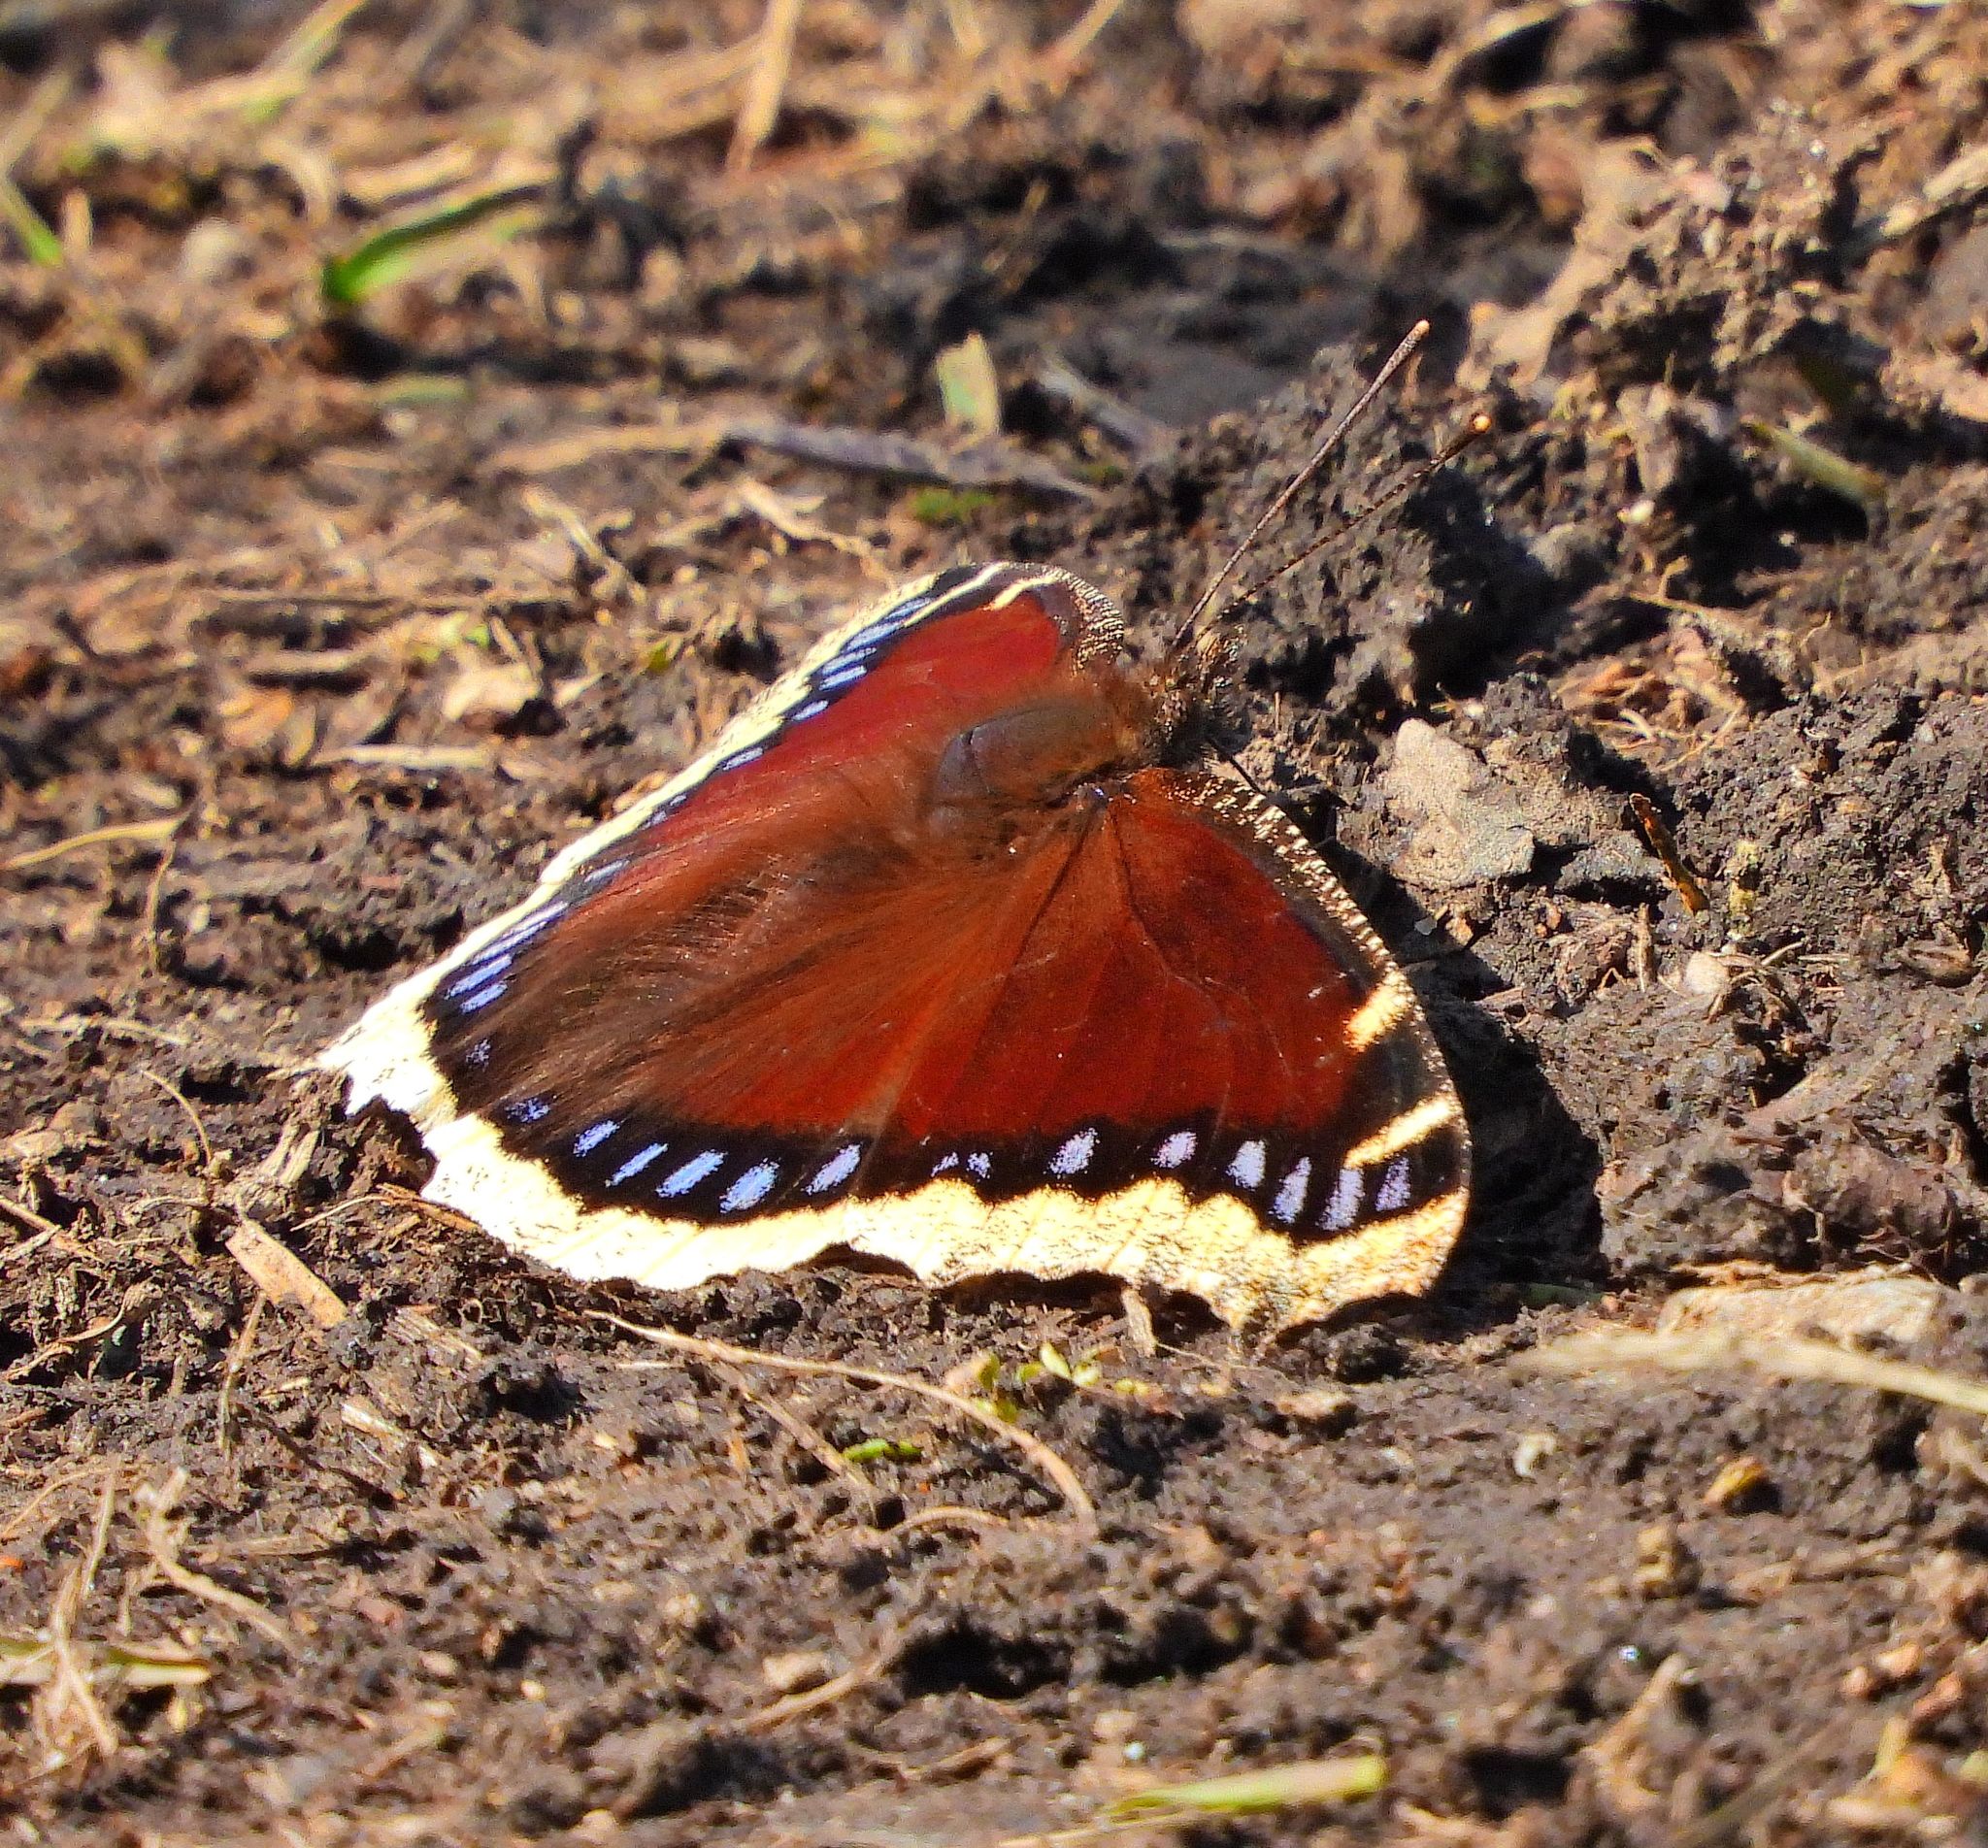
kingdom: Animalia
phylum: Arthropoda
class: Insecta
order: Lepidoptera
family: Nymphalidae
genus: Nymphalis
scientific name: Nymphalis antiopa
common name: Camberwell beauty
